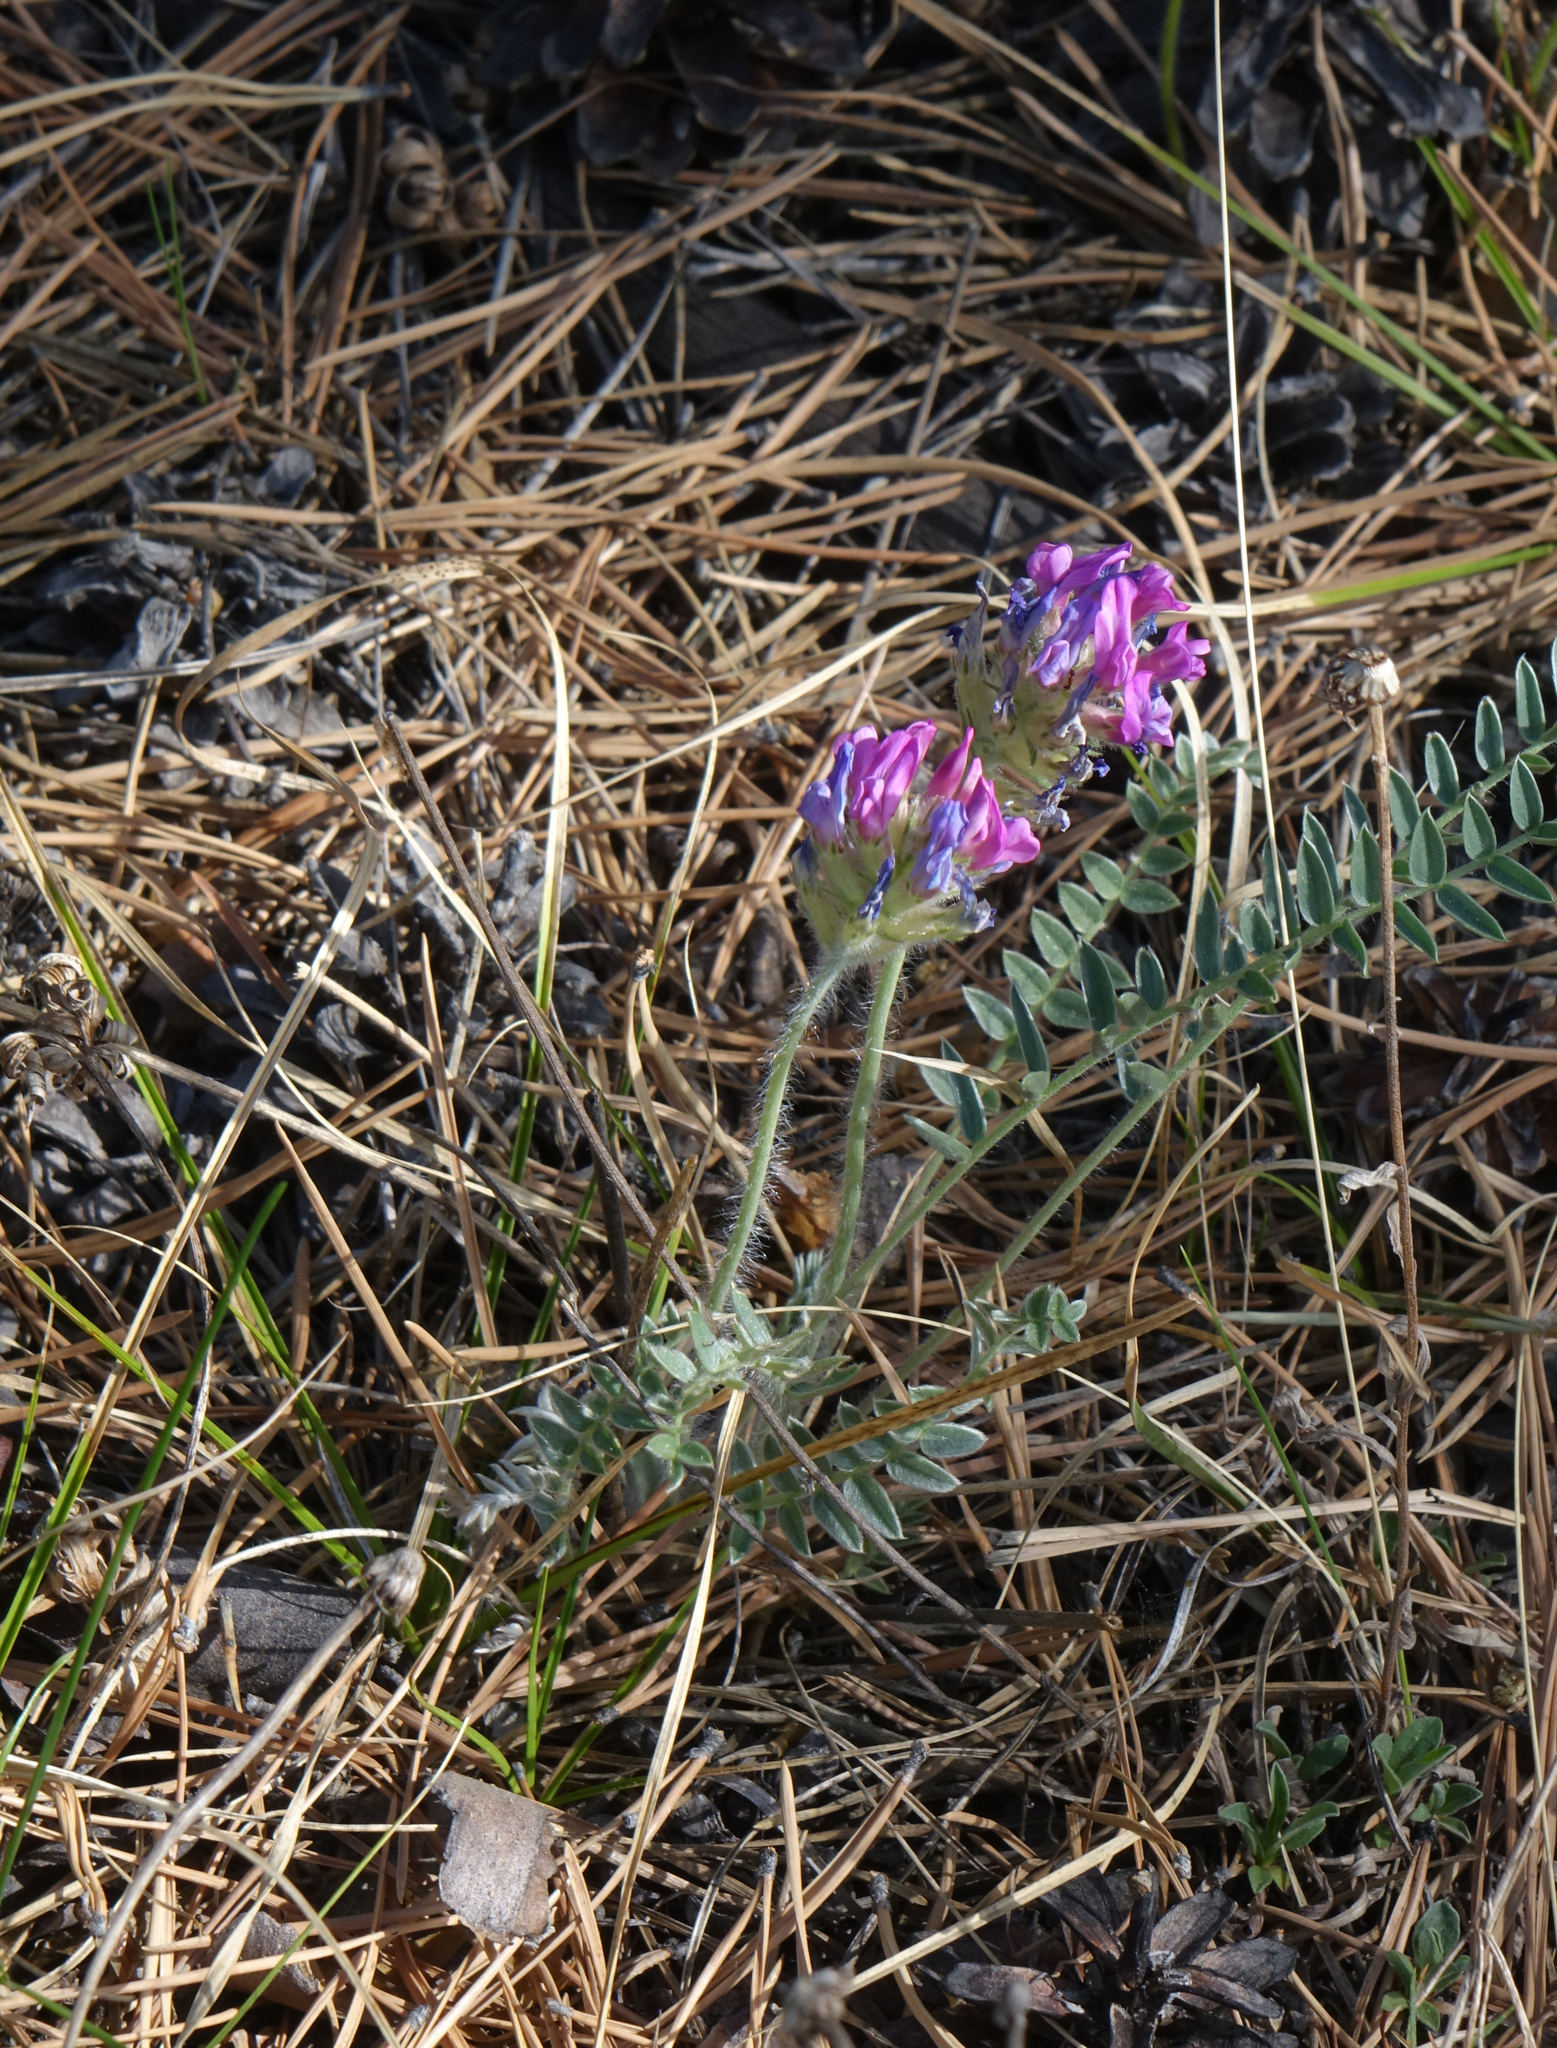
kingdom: Plantae
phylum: Tracheophyta
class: Magnoliopsida
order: Fabales
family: Fabaceae
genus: Oxytropis
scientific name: Oxytropis strobilacea
